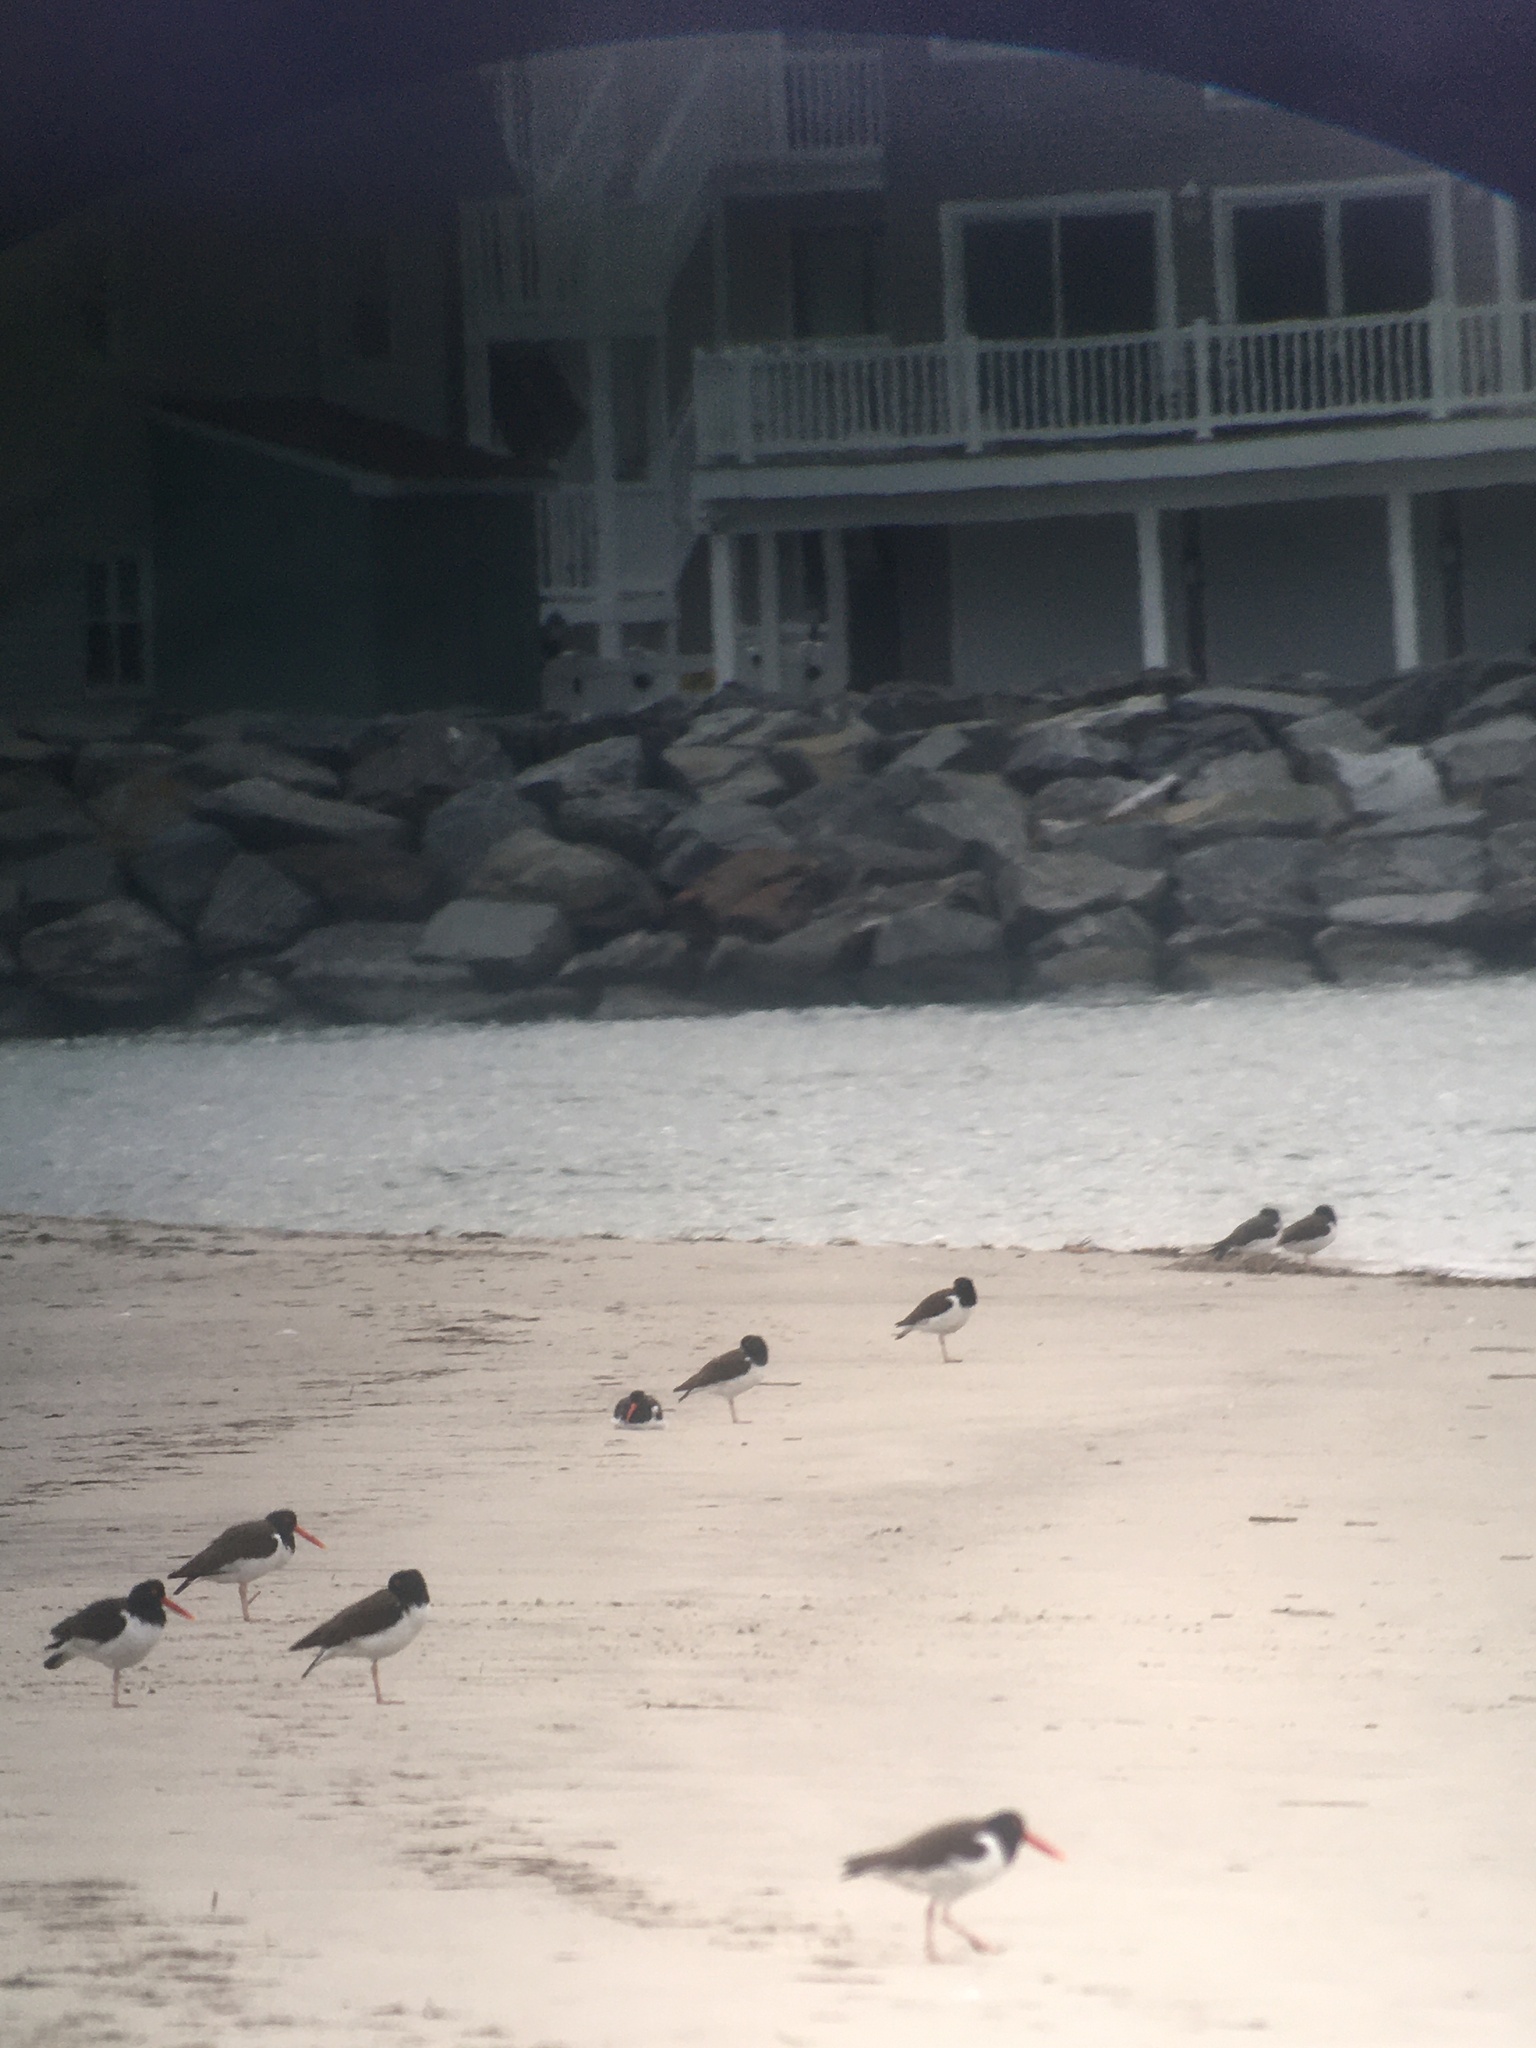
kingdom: Animalia
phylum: Chordata
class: Aves
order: Charadriiformes
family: Haematopodidae
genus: Haematopus
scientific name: Haematopus palliatus
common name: American oystercatcher
